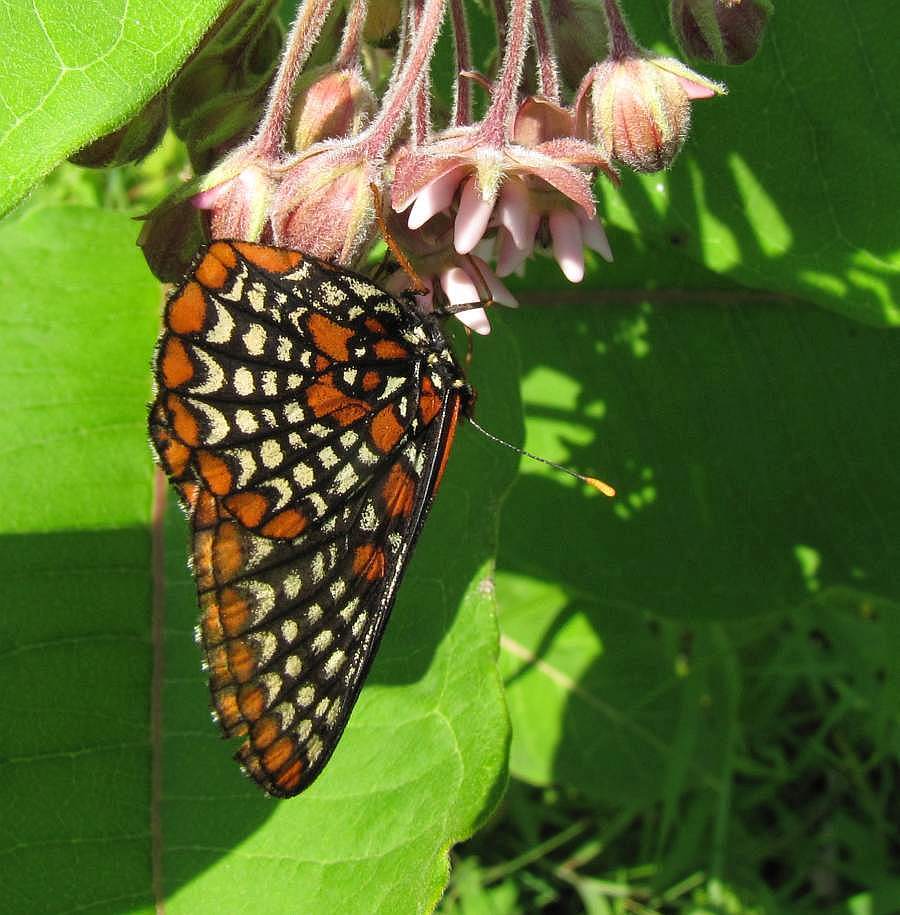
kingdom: Animalia
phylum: Arthropoda
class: Insecta
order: Lepidoptera
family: Nymphalidae
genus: Euphydryas
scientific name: Euphydryas phaeton
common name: Baltimore checkerspot
